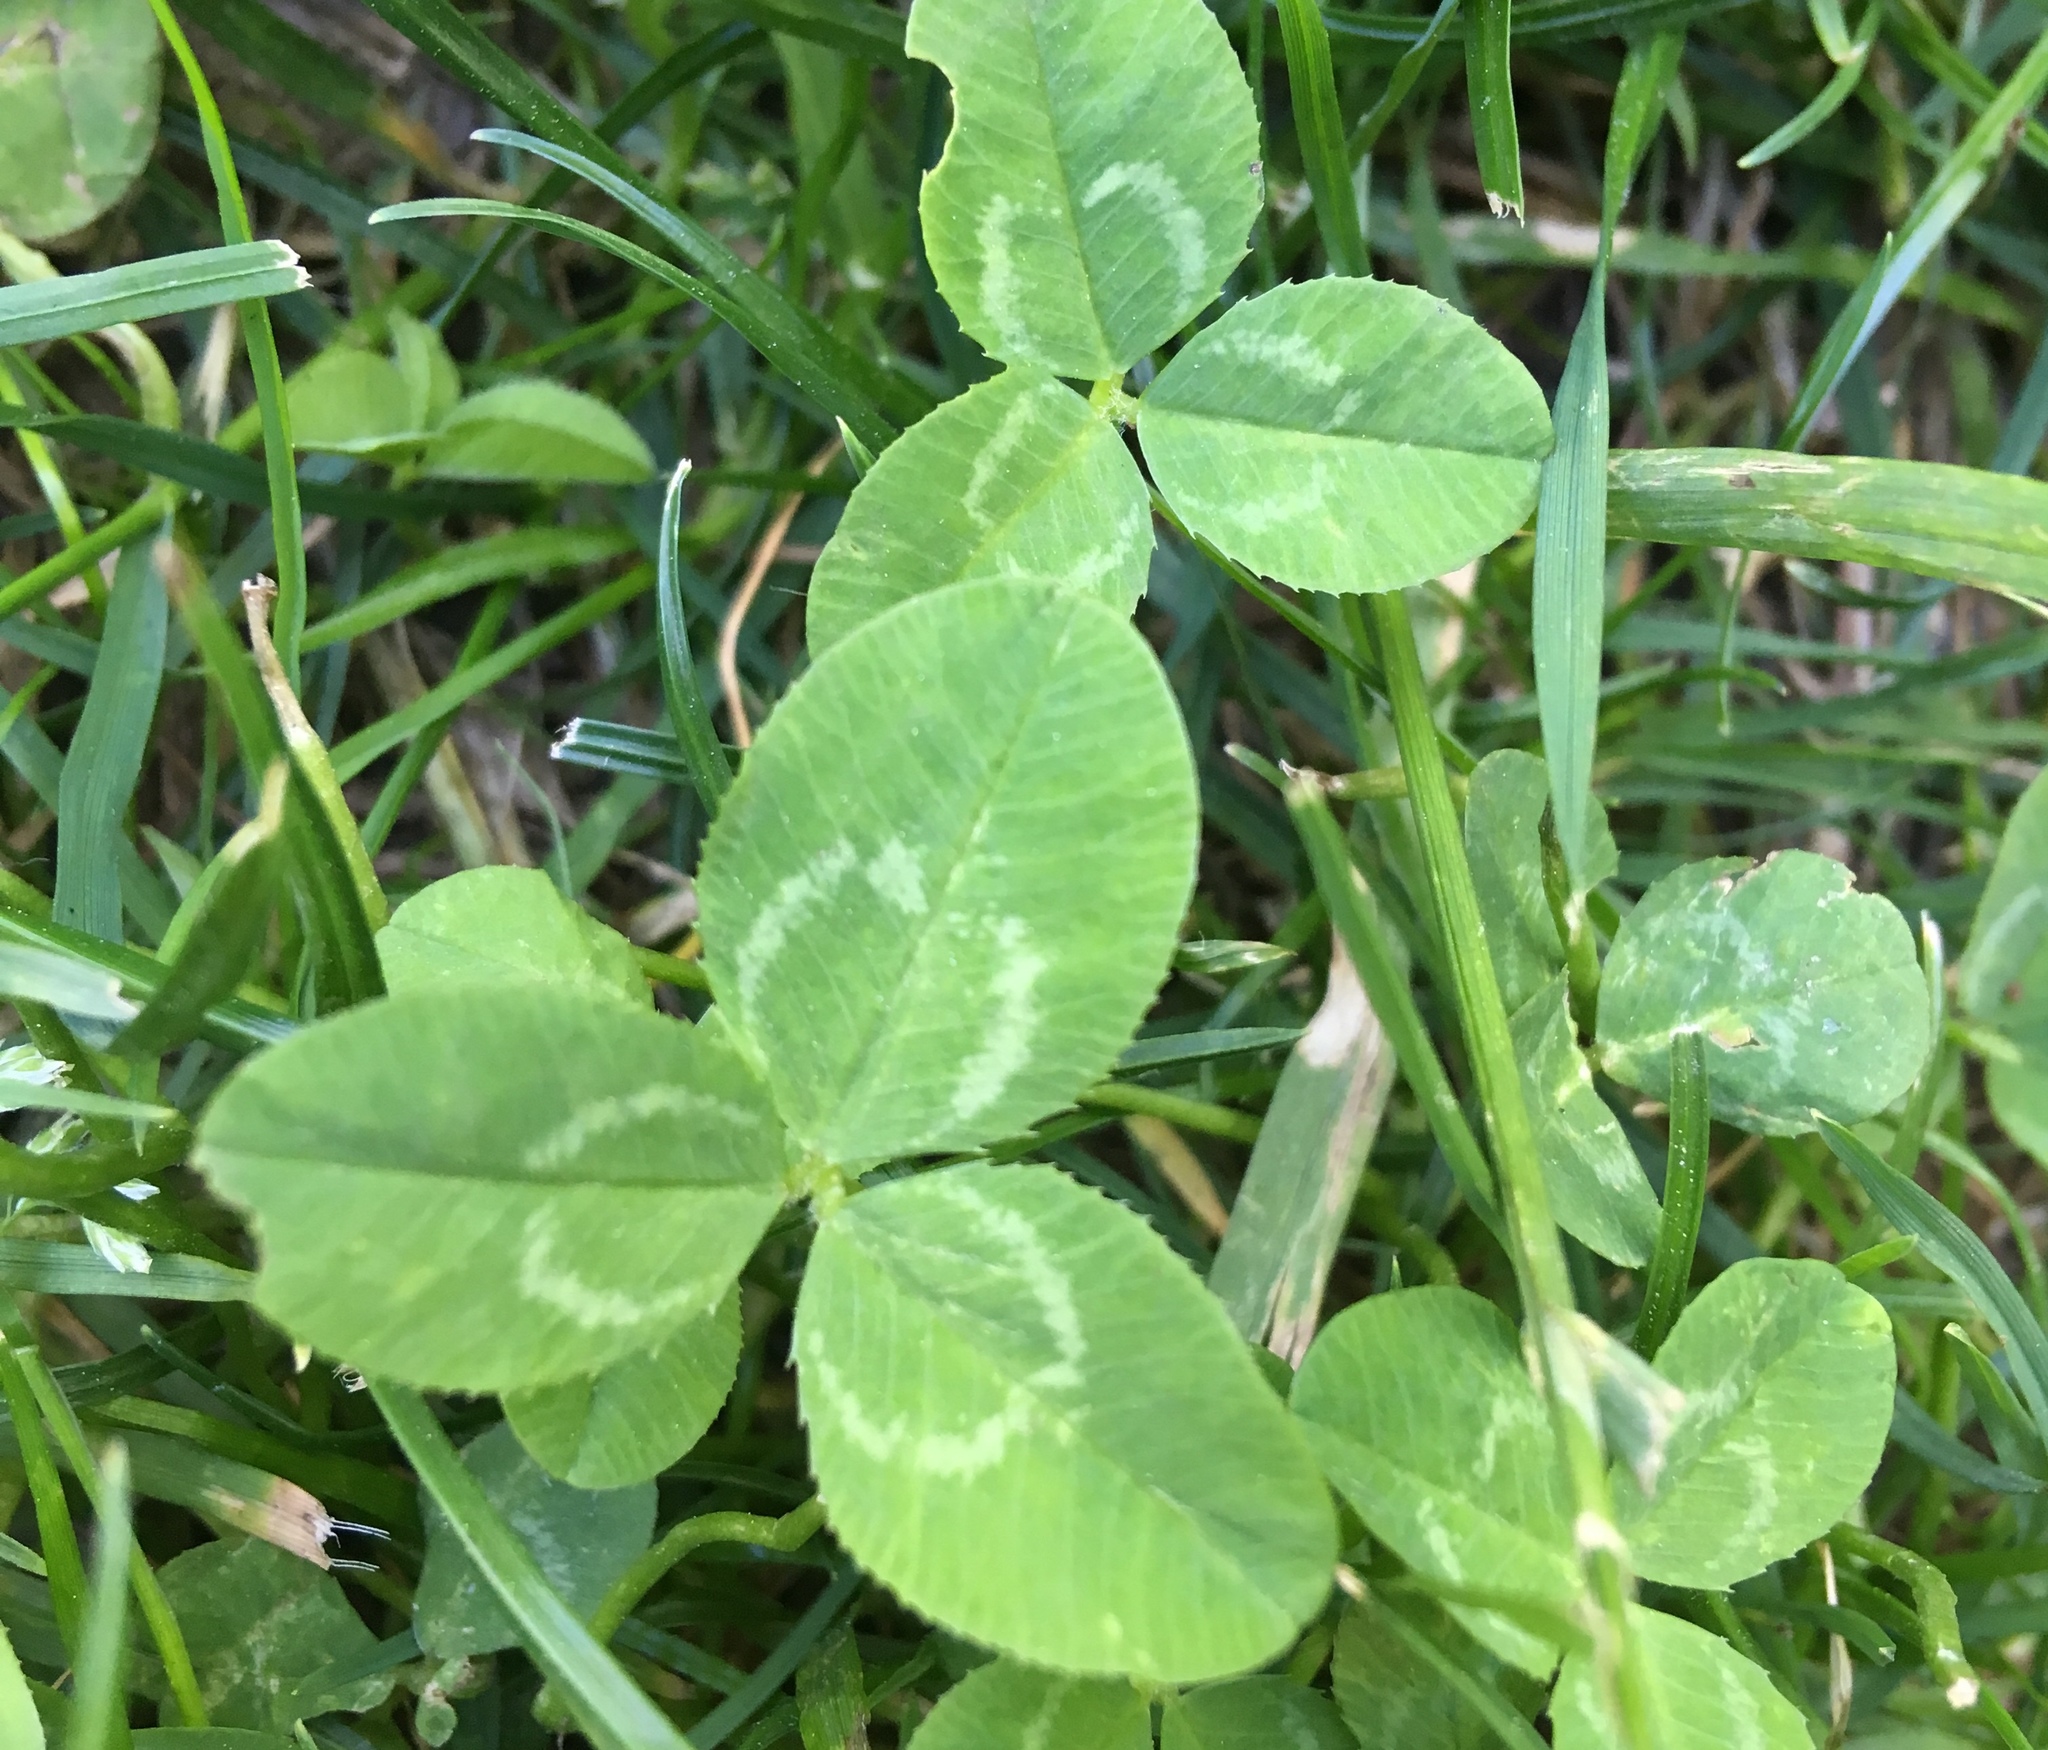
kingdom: Plantae
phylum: Tracheophyta
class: Magnoliopsida
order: Fabales
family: Fabaceae
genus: Trifolium
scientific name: Trifolium repens
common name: White clover
